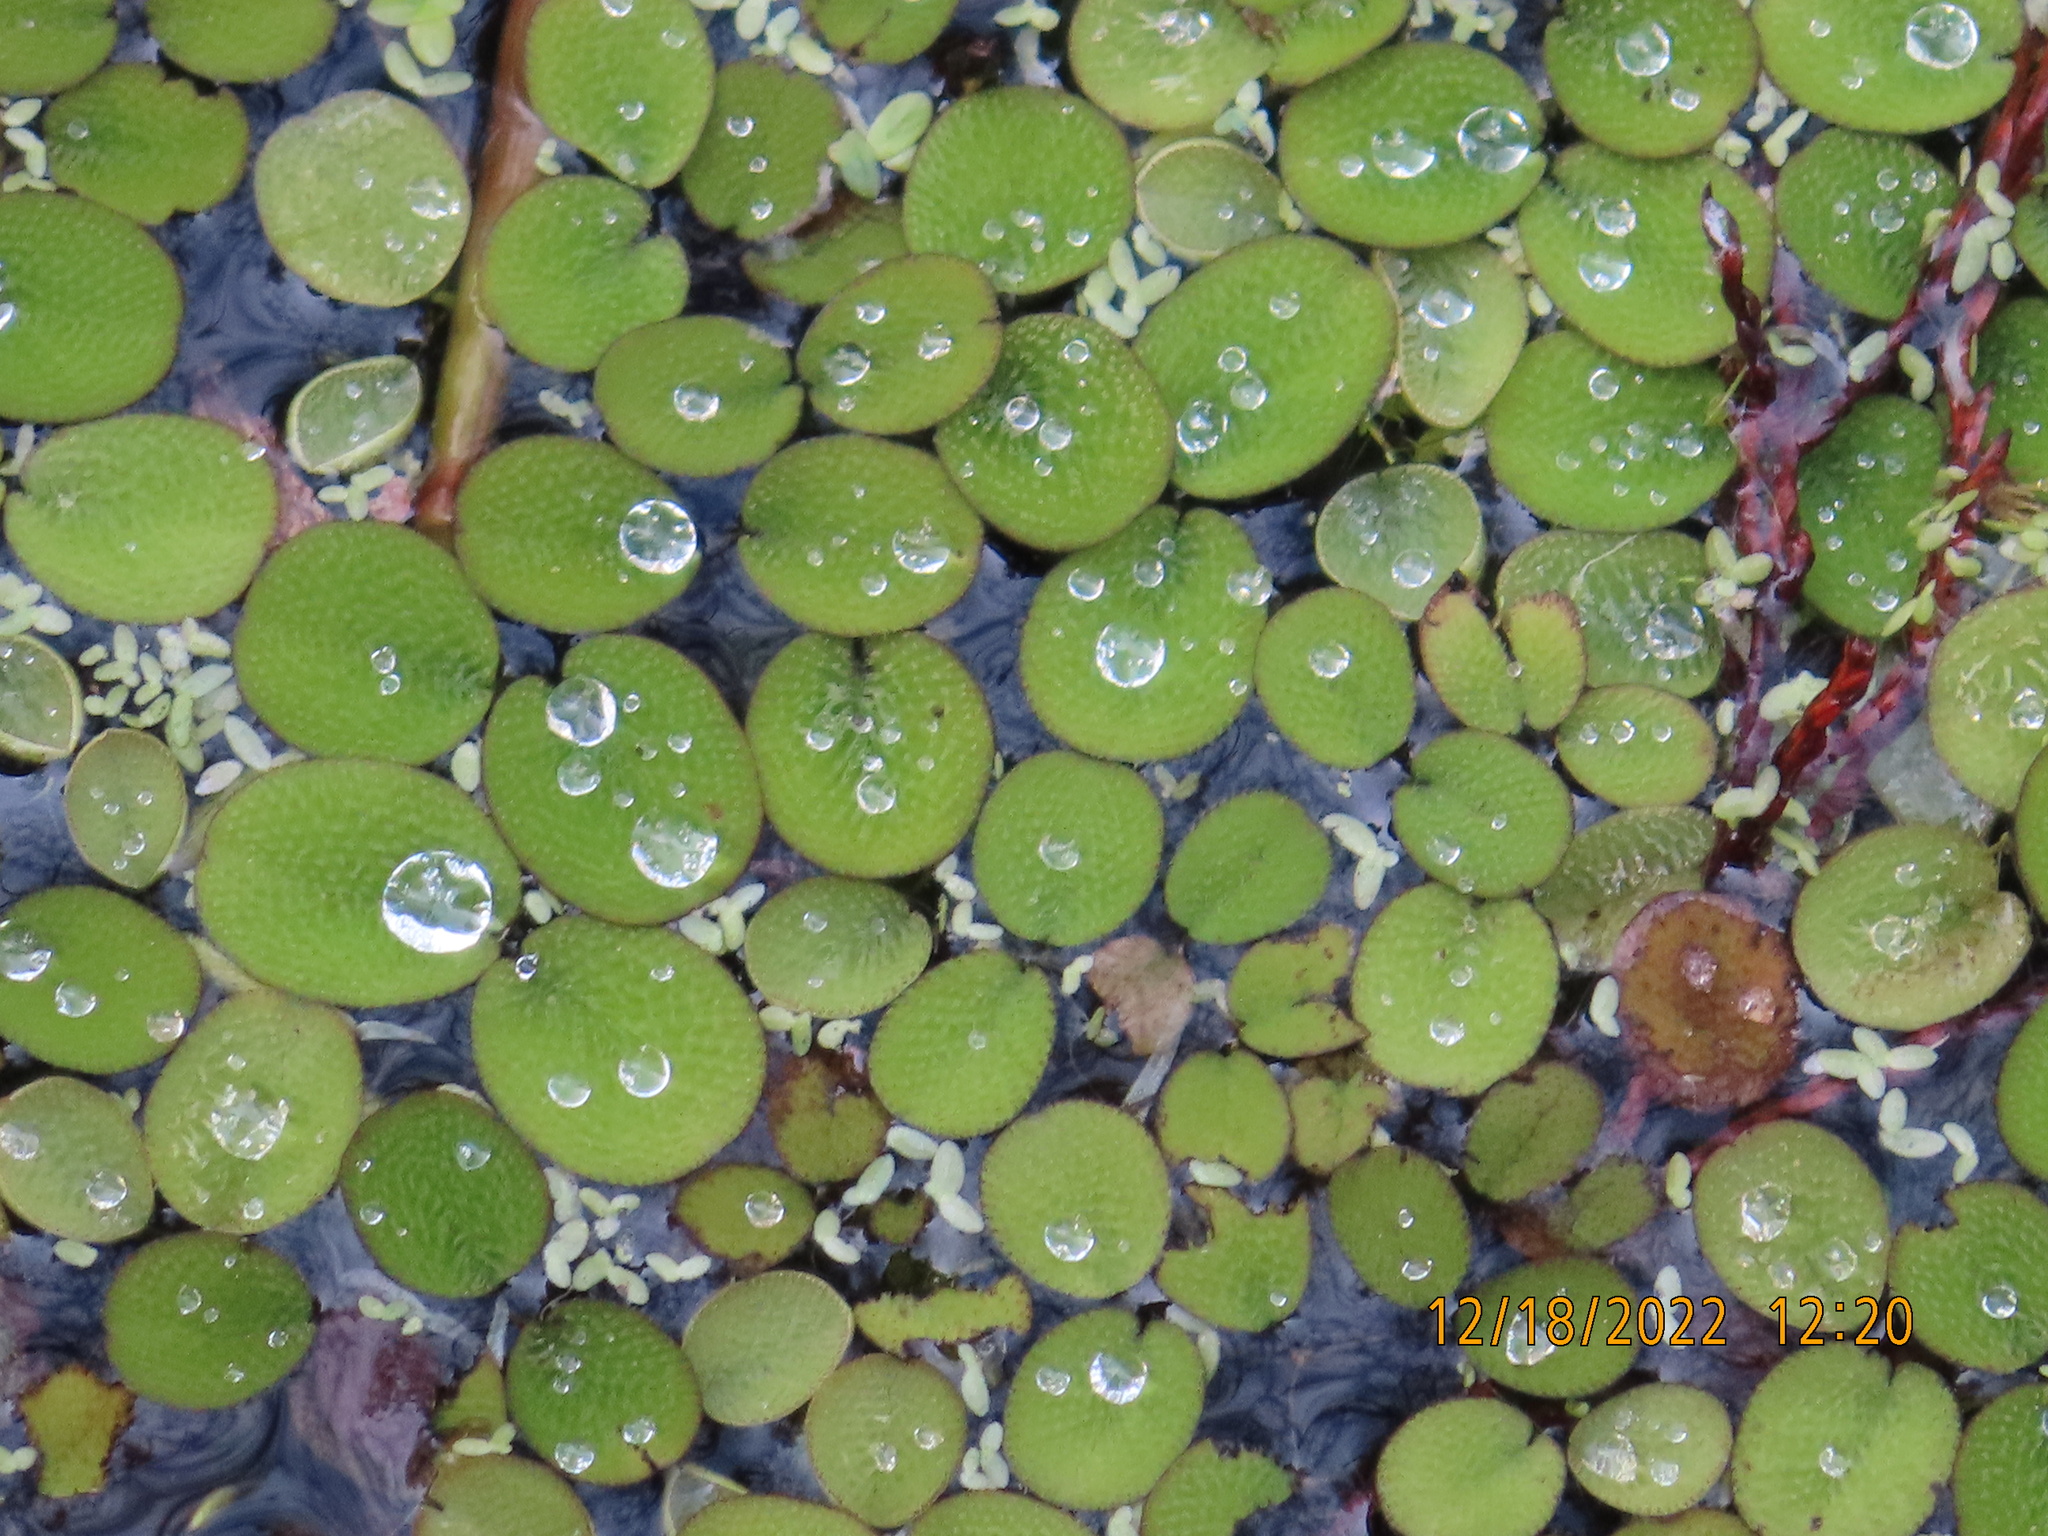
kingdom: Plantae
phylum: Tracheophyta
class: Polypodiopsida
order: Salviniales
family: Salviniaceae
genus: Salvinia
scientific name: Salvinia minima
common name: Water spangles
